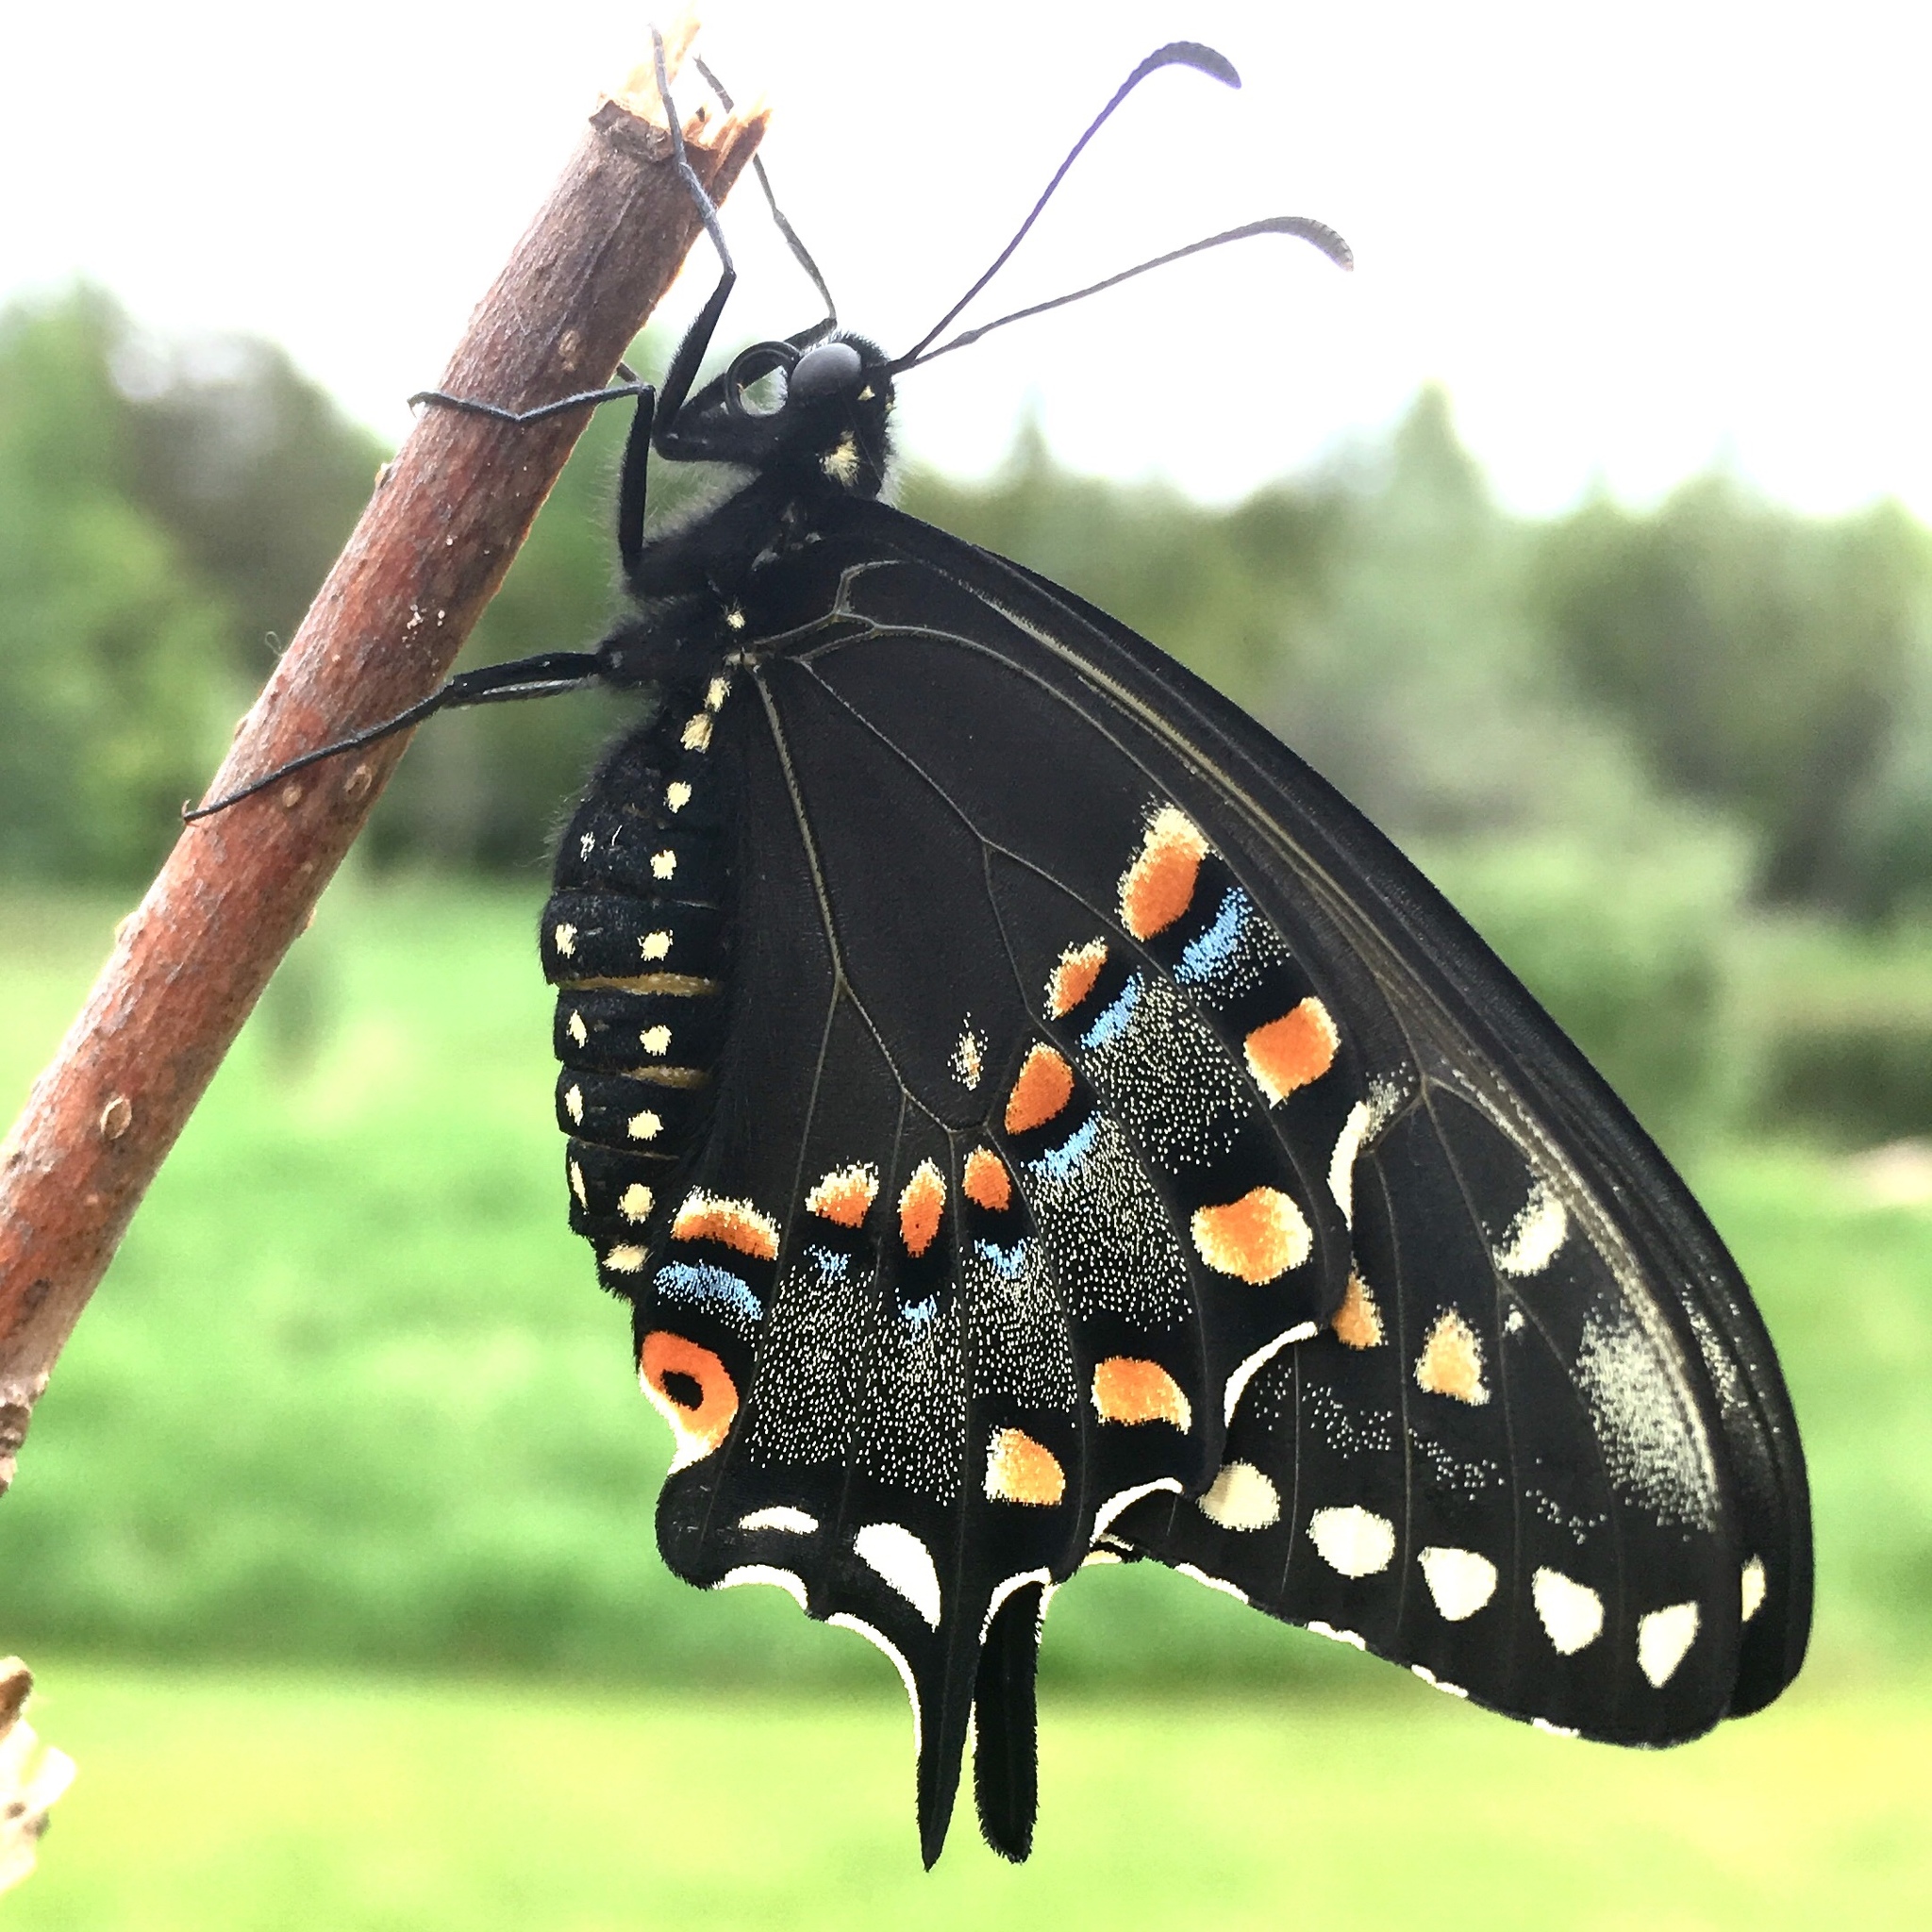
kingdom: Animalia
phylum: Arthropoda
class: Insecta
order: Lepidoptera
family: Papilionidae
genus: Papilio
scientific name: Papilio polyxenes
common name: Black swallowtail
